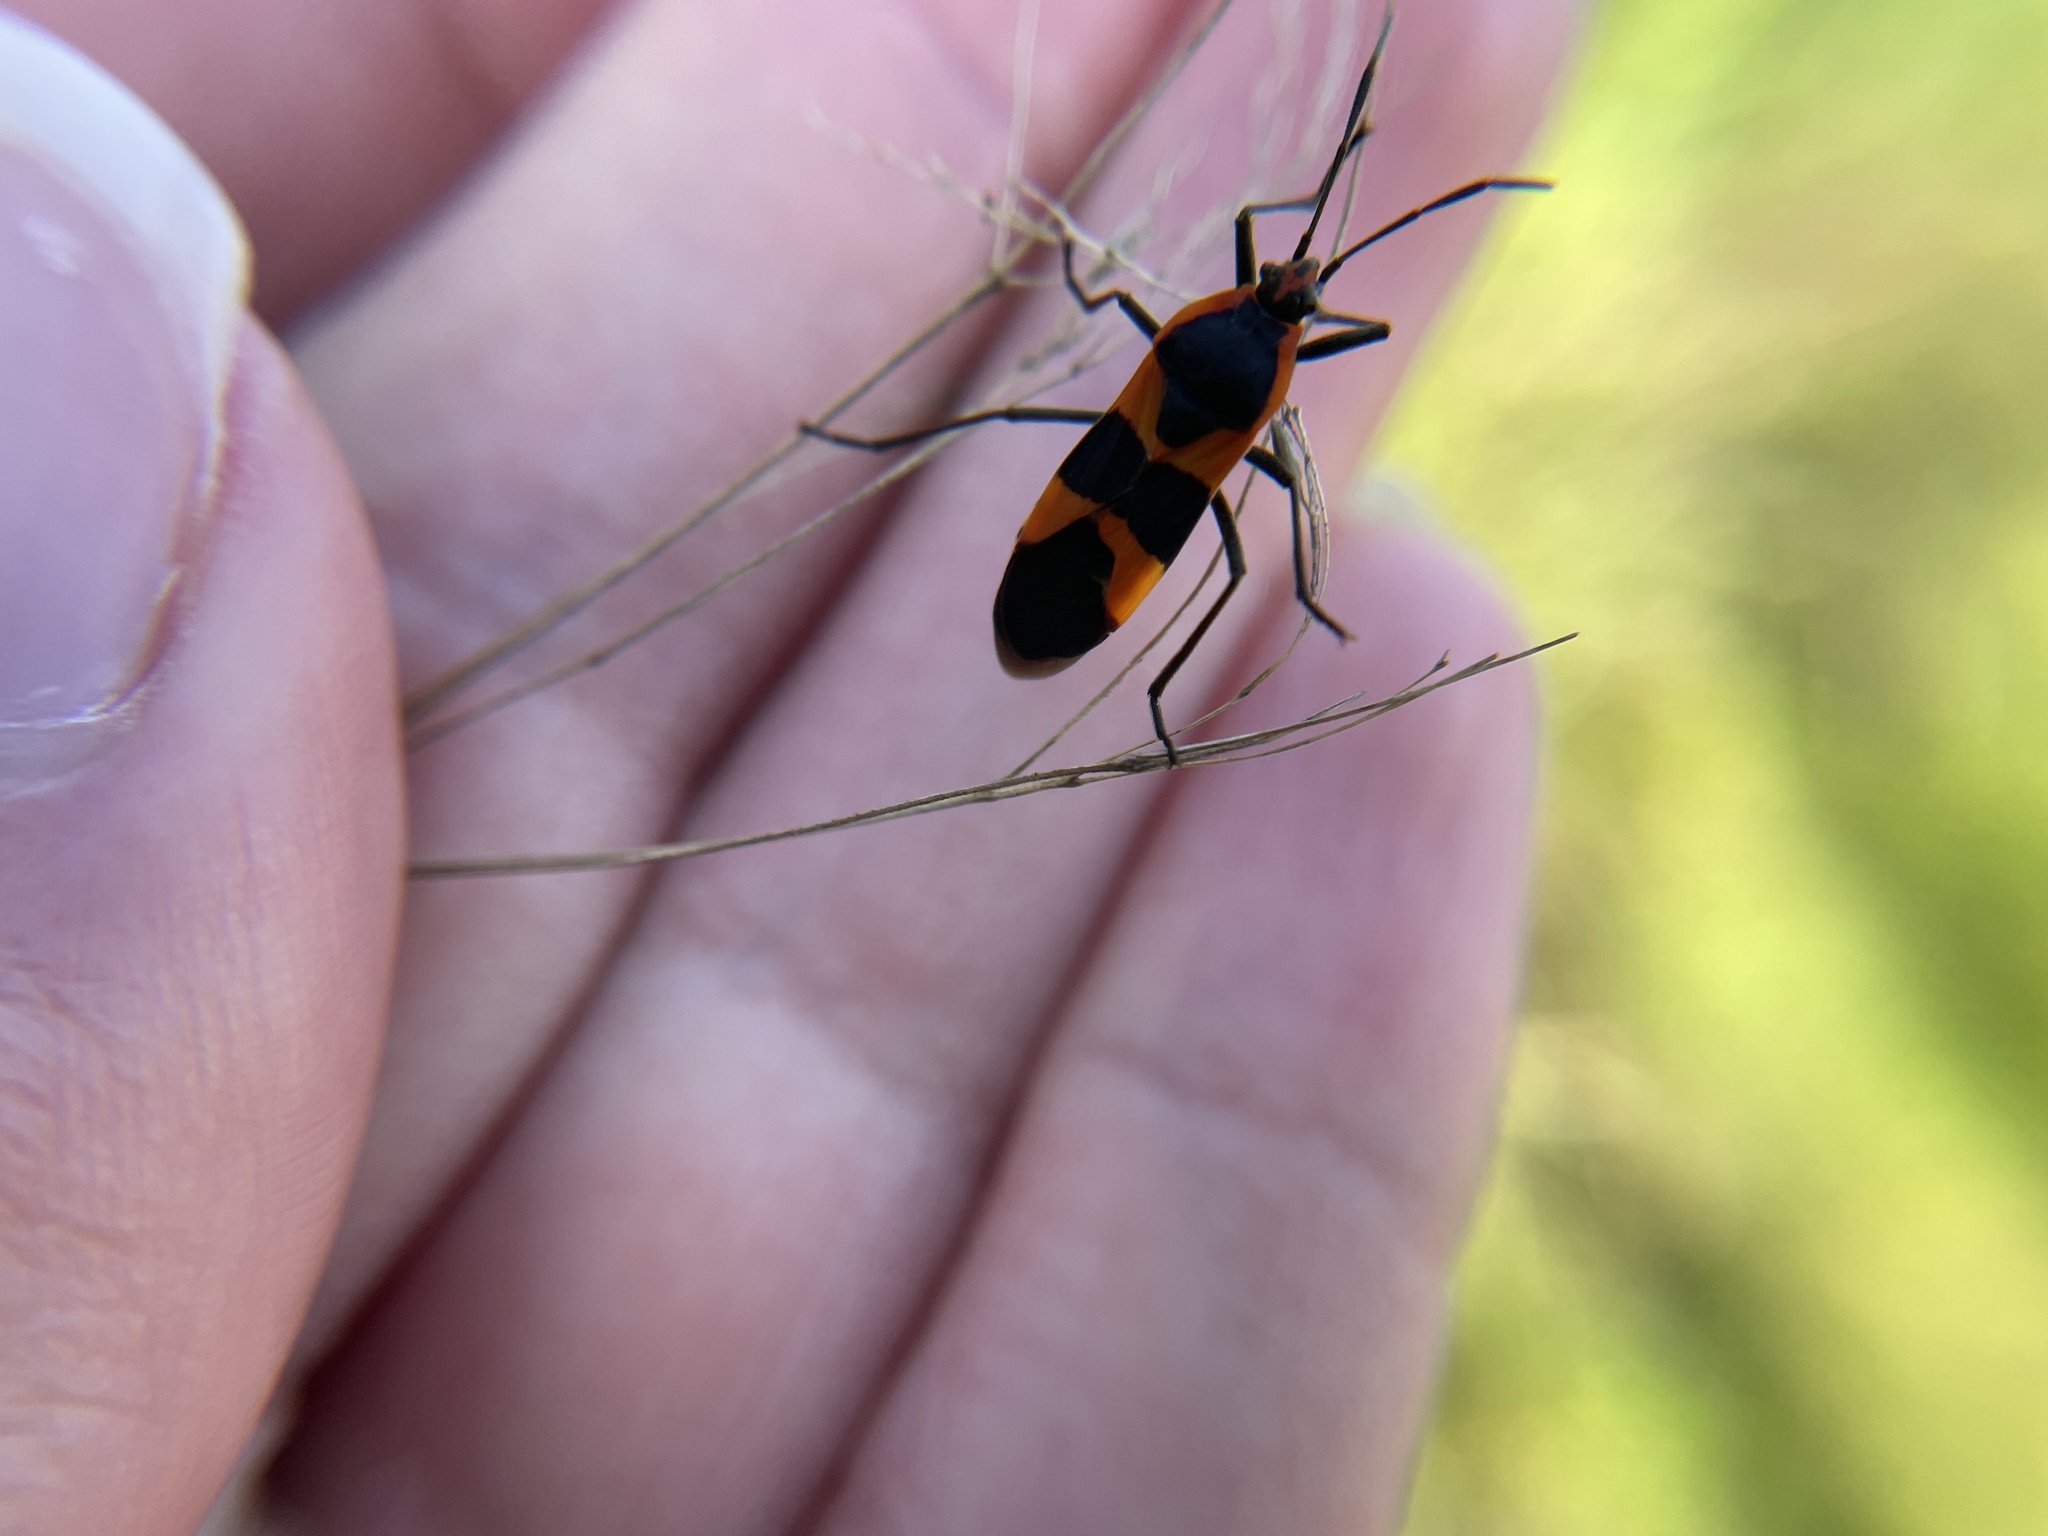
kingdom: Animalia
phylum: Arthropoda
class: Insecta
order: Hemiptera
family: Lygaeidae
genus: Oncopeltus
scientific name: Oncopeltus fasciatus
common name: Large milkweed bug
